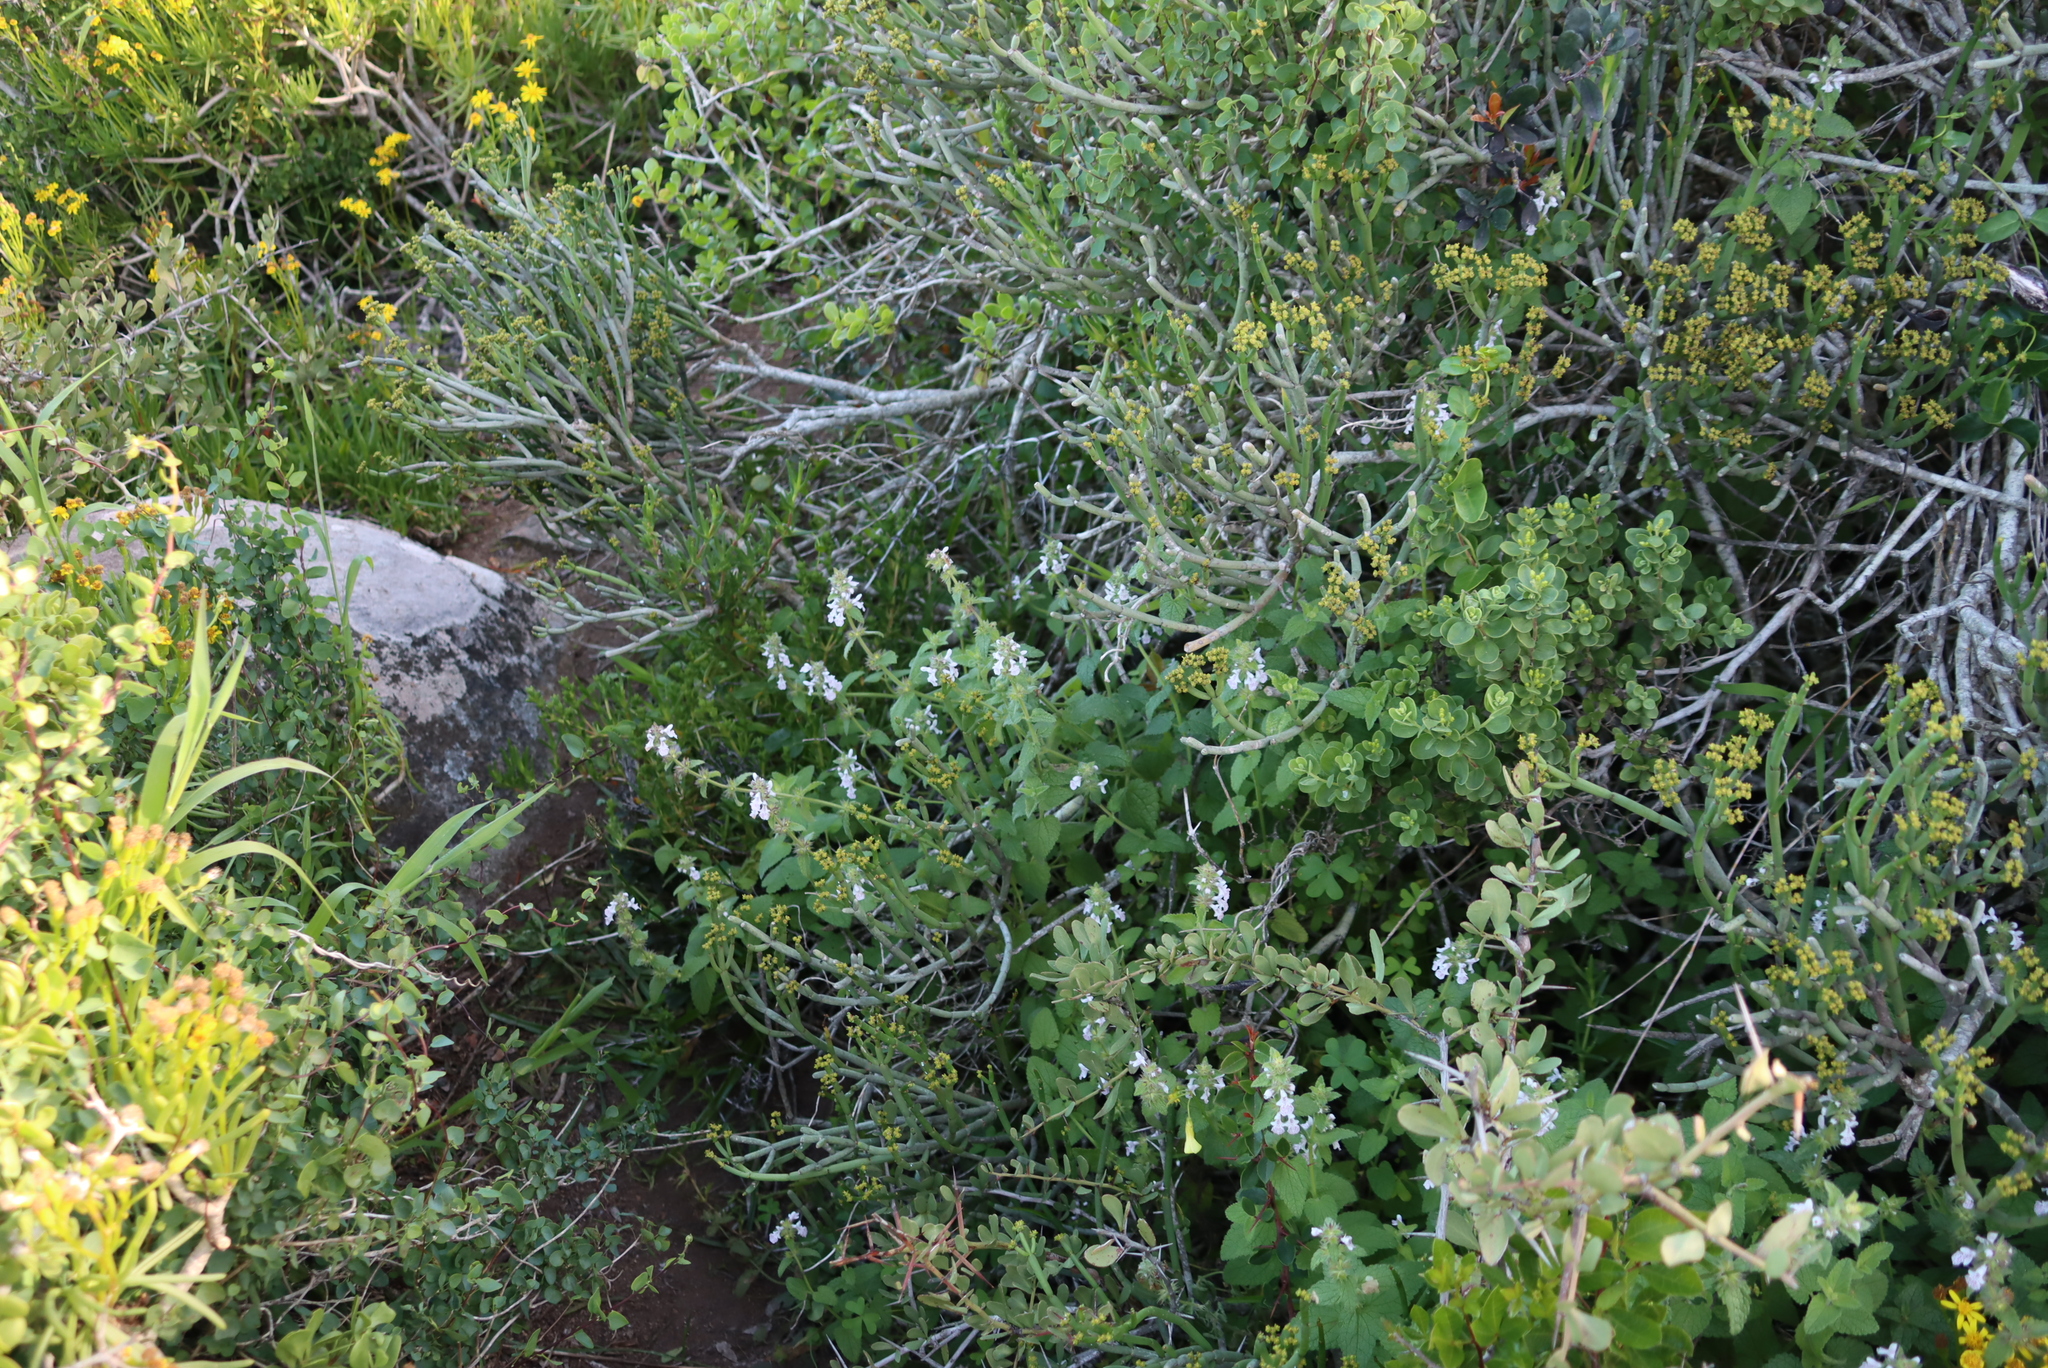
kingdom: Plantae
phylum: Tracheophyta
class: Magnoliopsida
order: Lamiales
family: Lamiaceae
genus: Stachys
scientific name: Stachys bolusii
